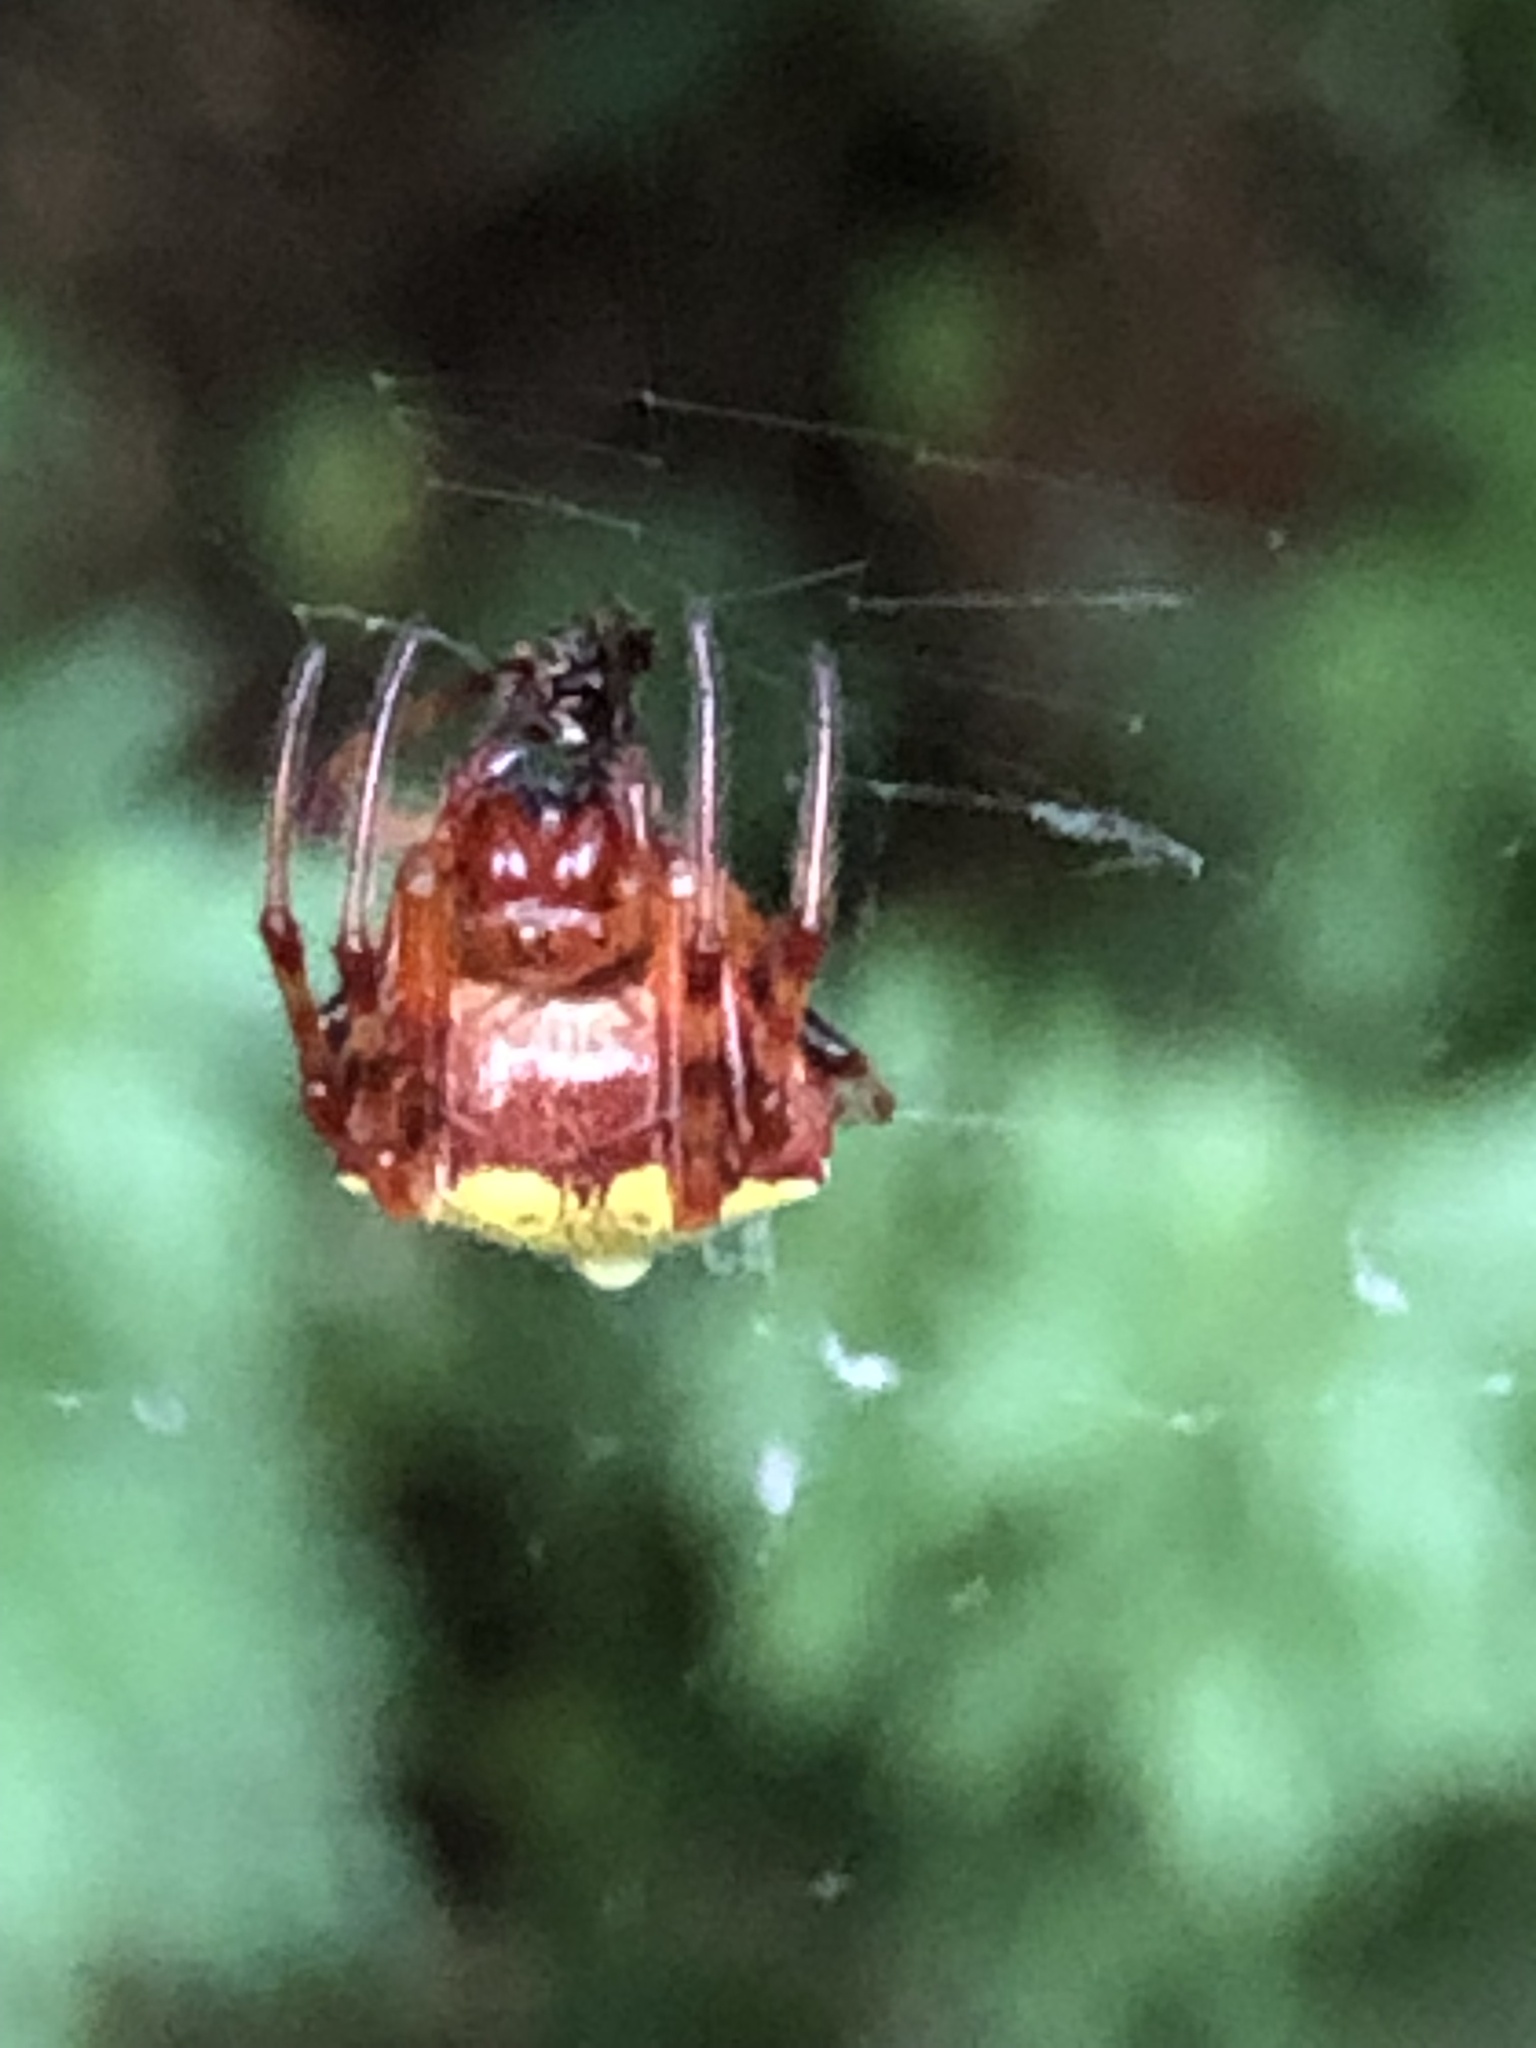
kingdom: Animalia
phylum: Arthropoda
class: Arachnida
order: Araneae
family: Araneidae
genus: Verrucosa
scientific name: Verrucosa arenata
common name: Orb weavers
